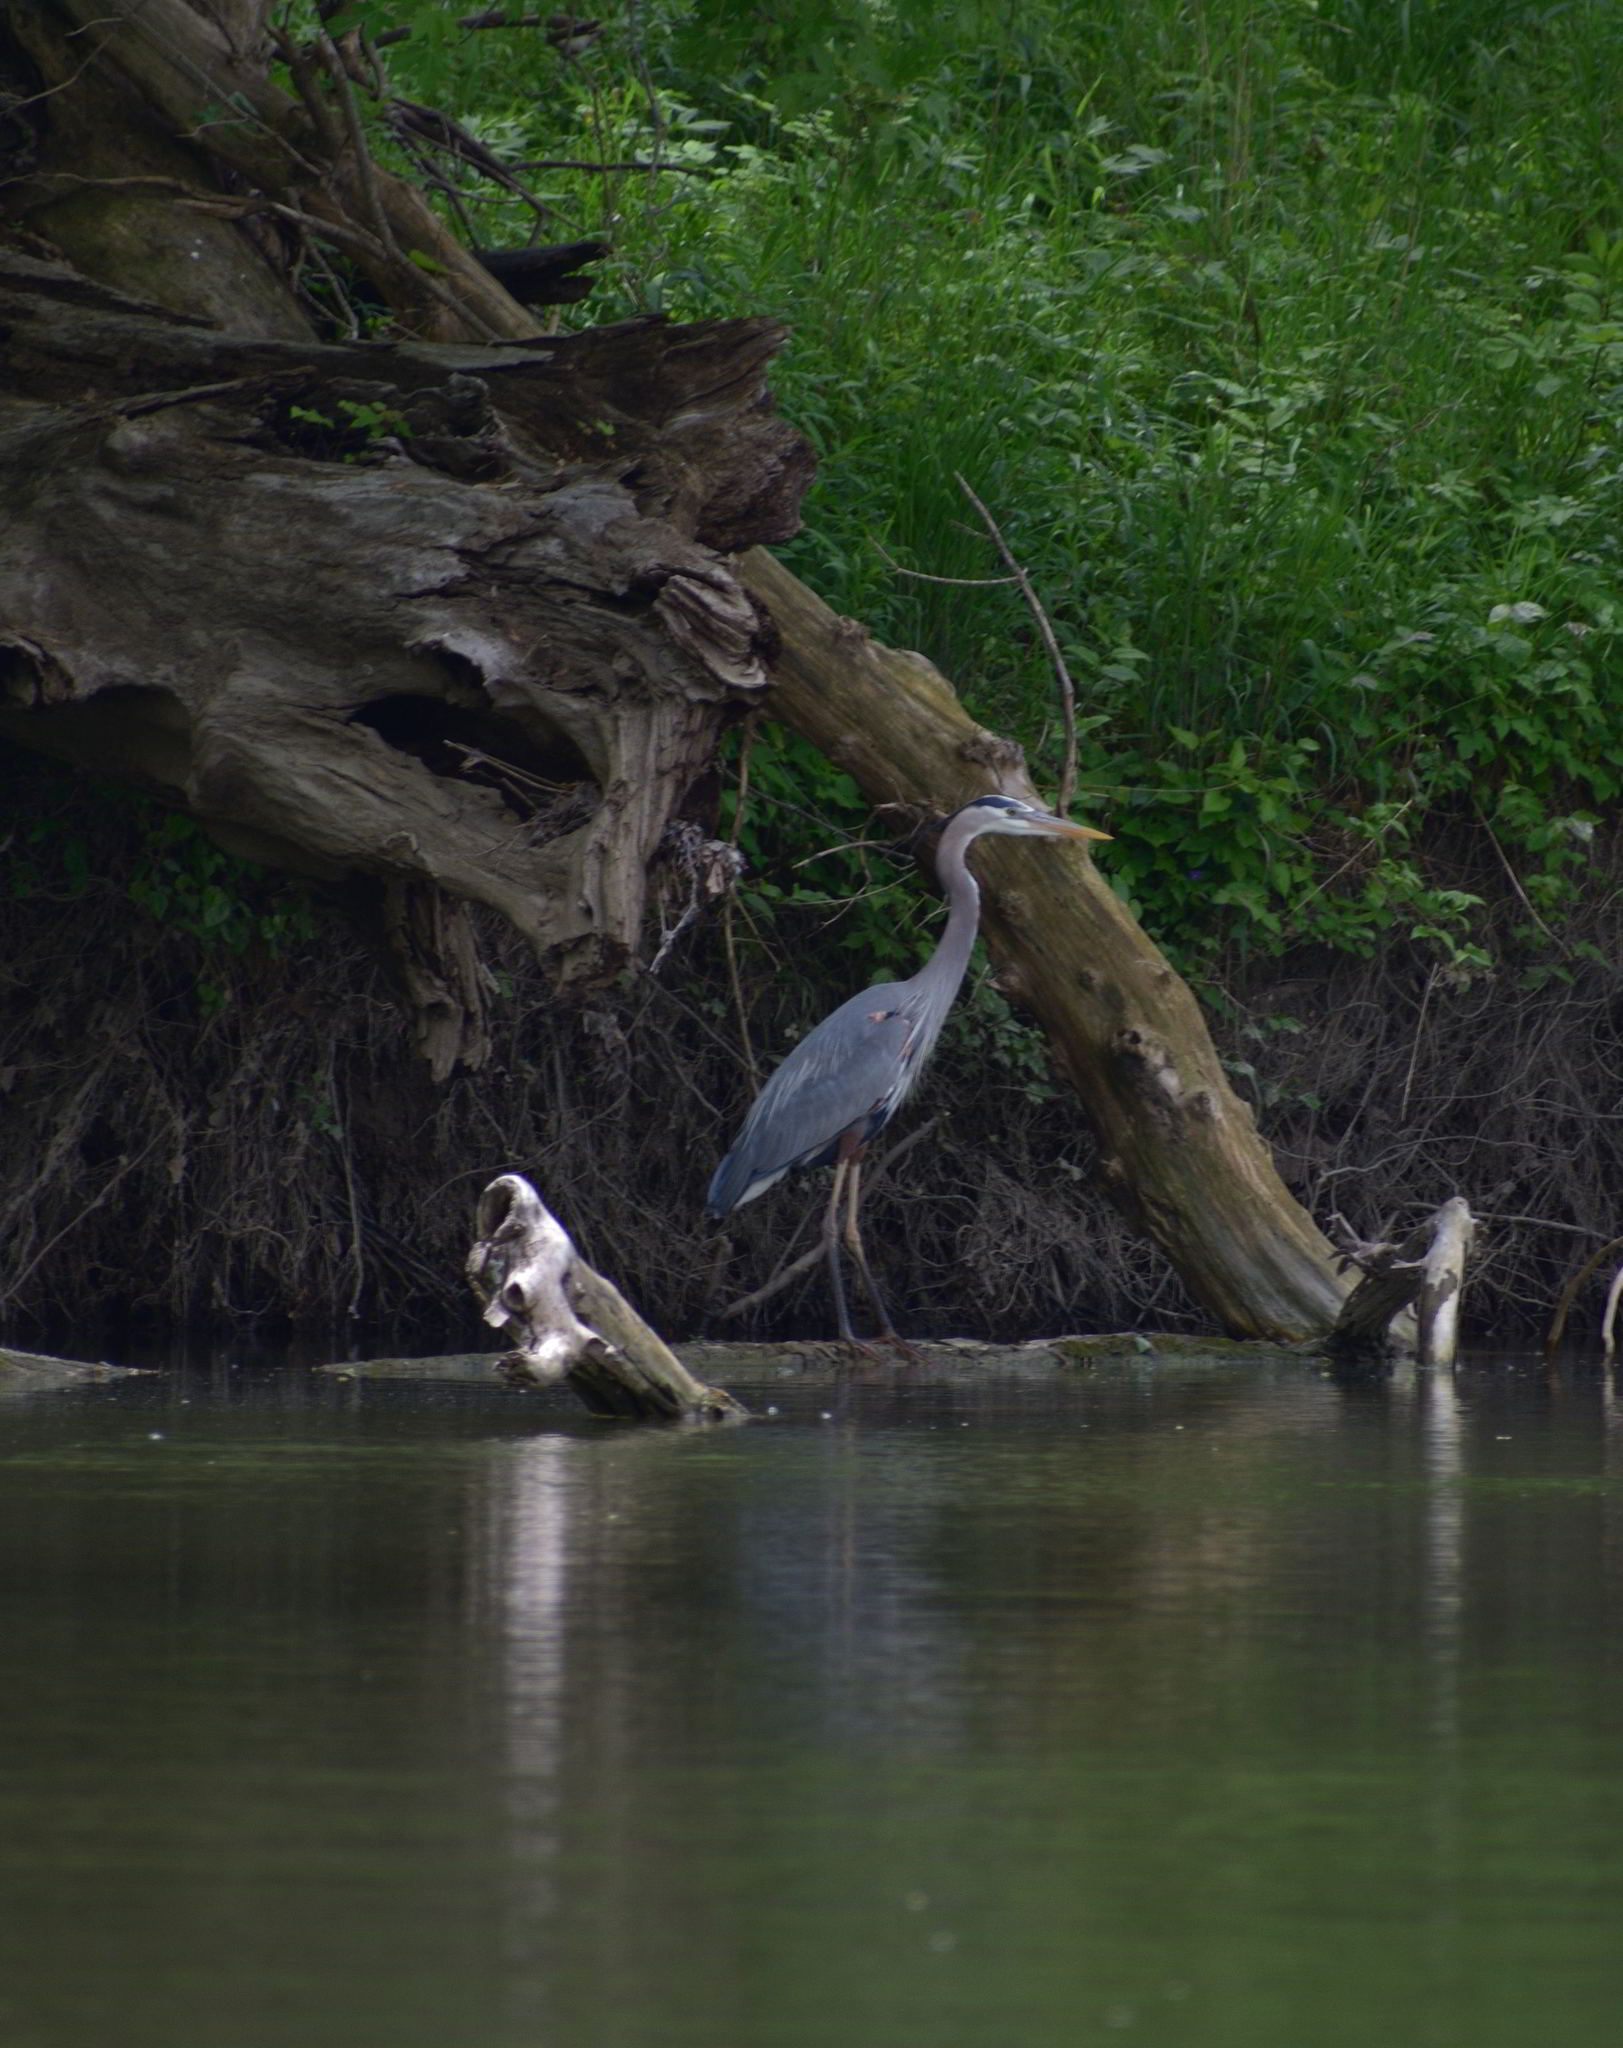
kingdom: Animalia
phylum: Chordata
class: Aves
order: Pelecaniformes
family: Ardeidae
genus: Ardea
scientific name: Ardea herodias
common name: Great blue heron
